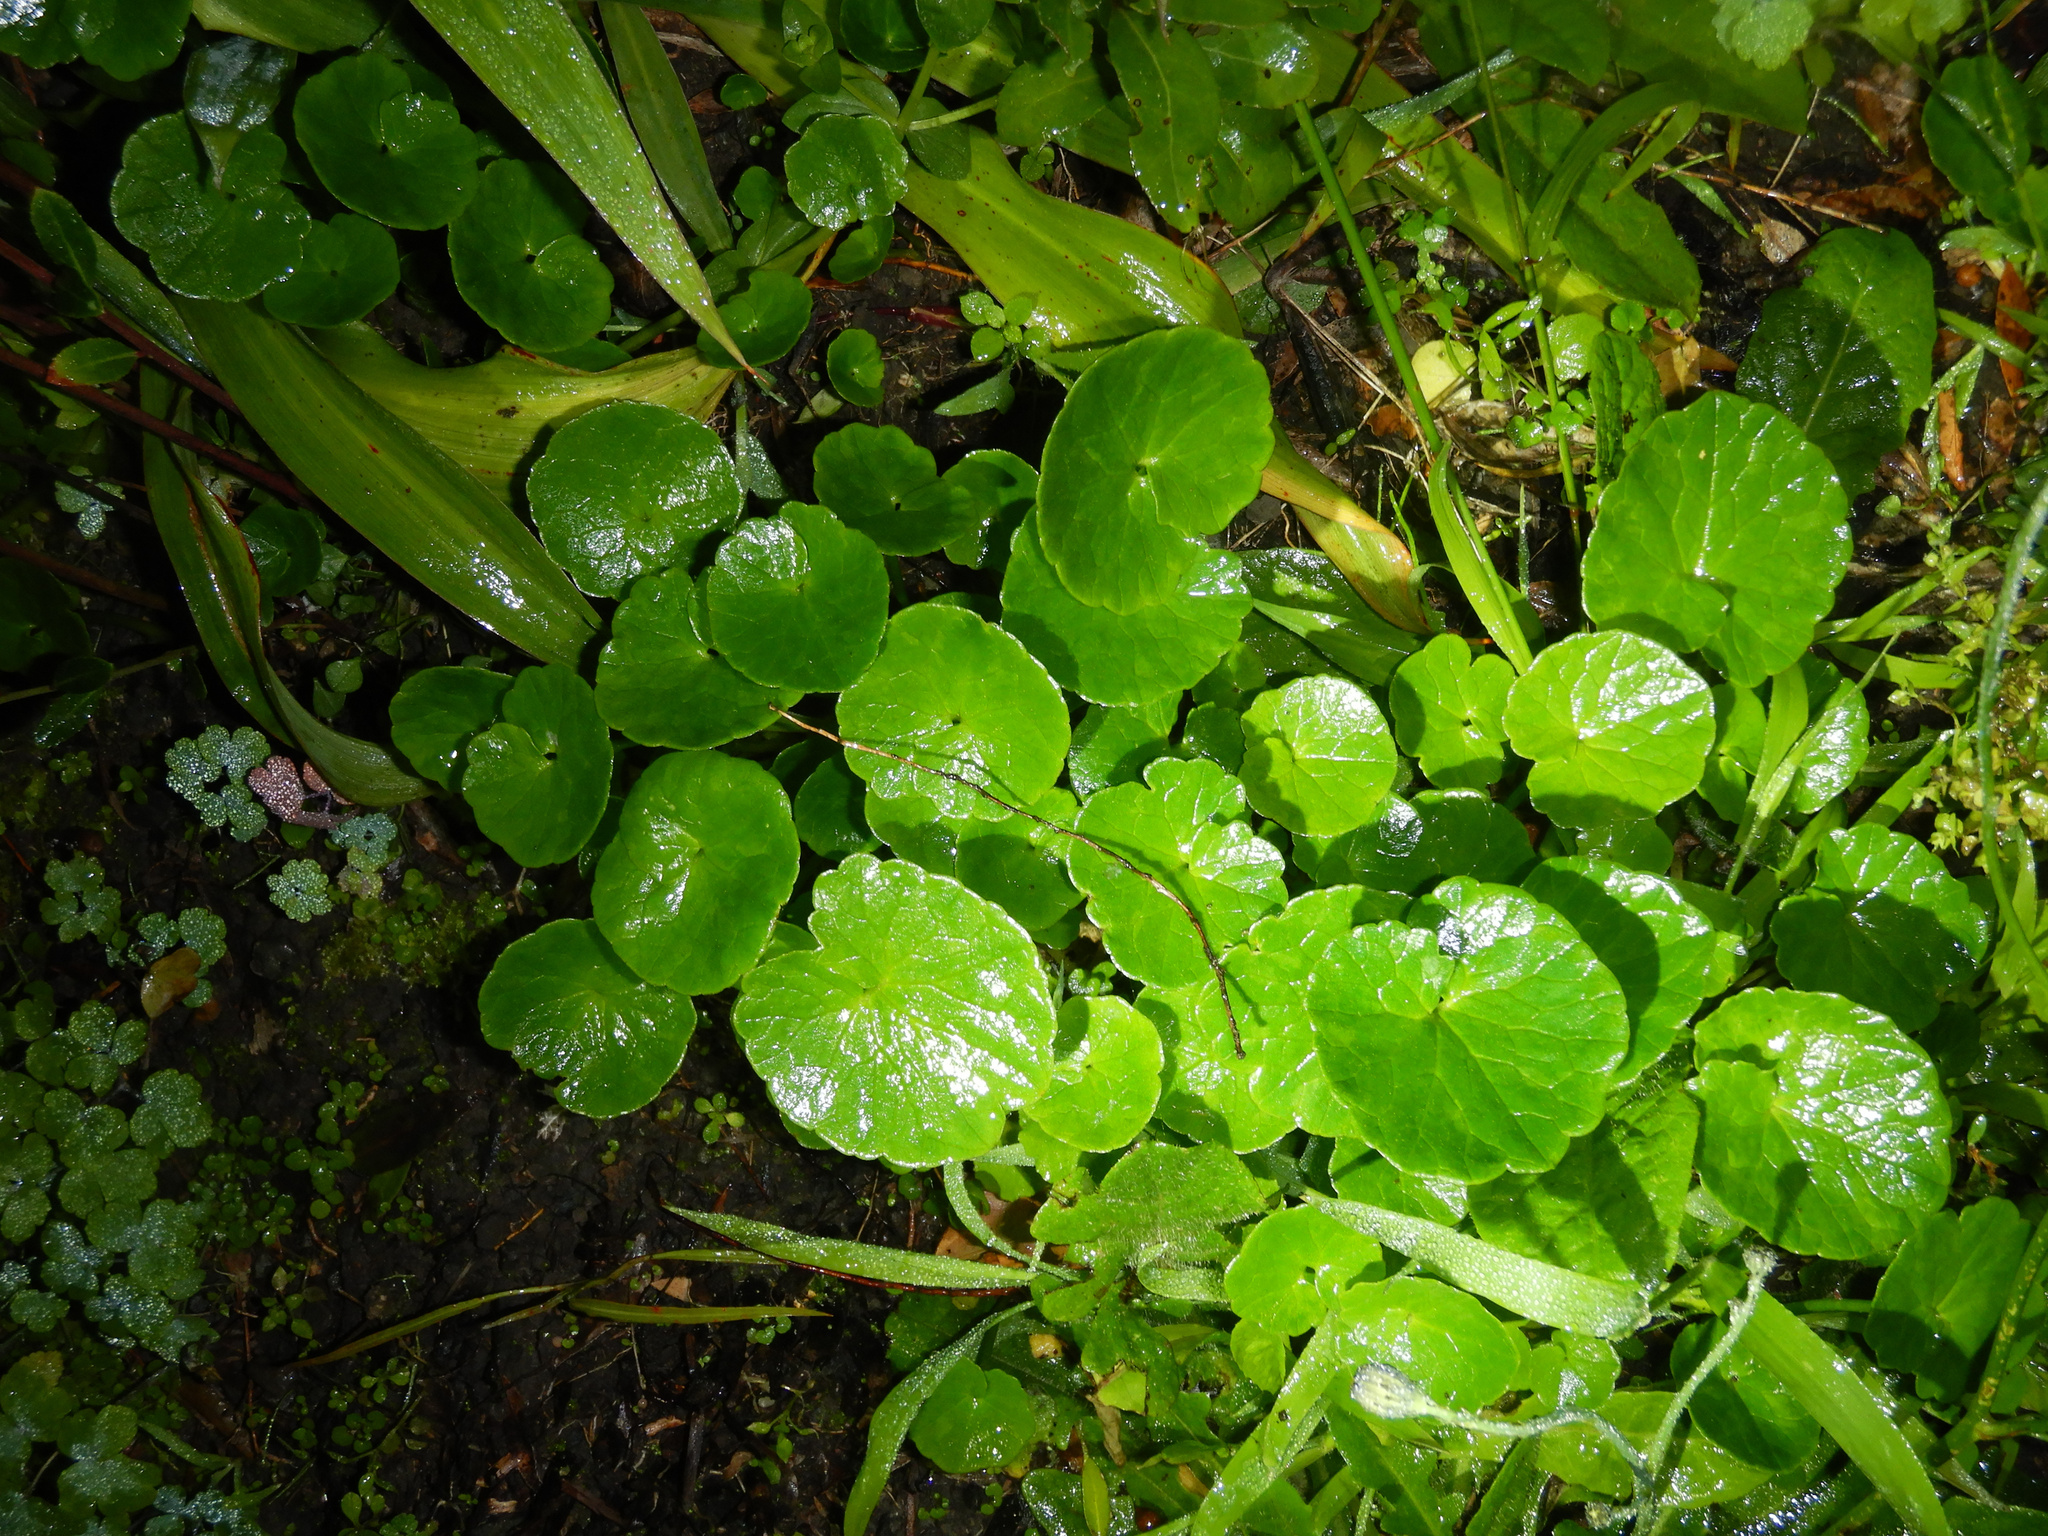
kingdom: Plantae
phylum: Tracheophyta
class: Magnoliopsida
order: Ranunculales
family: Ranunculaceae
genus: Ficaria
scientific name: Ficaria grandiflora
